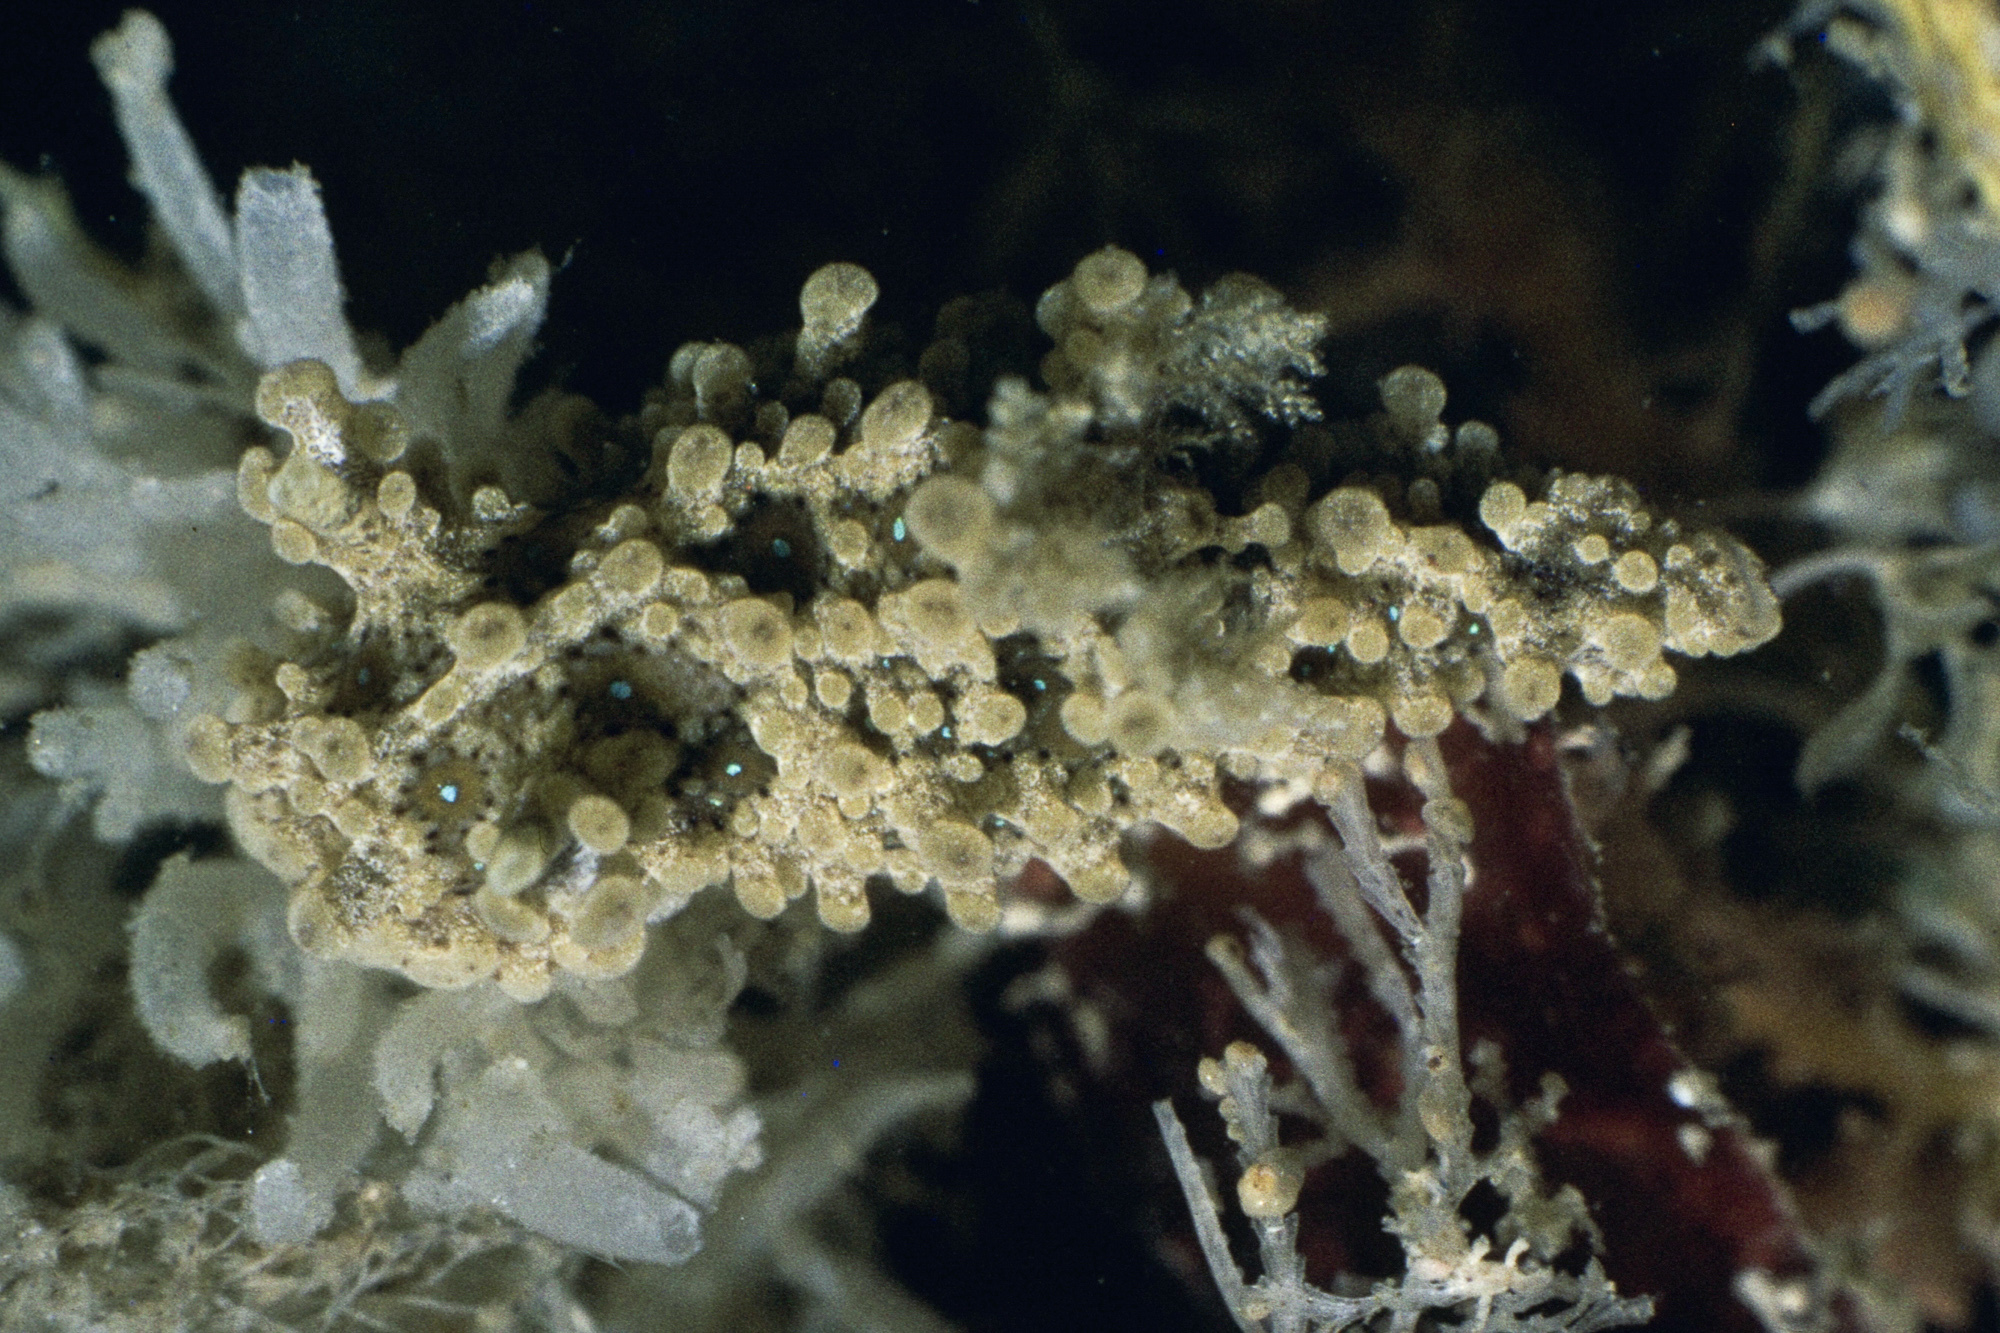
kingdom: Animalia
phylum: Mollusca
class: Gastropoda
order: Nudibranchia
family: Aegiridae
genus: Aegires
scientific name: Aegires punctilucens
